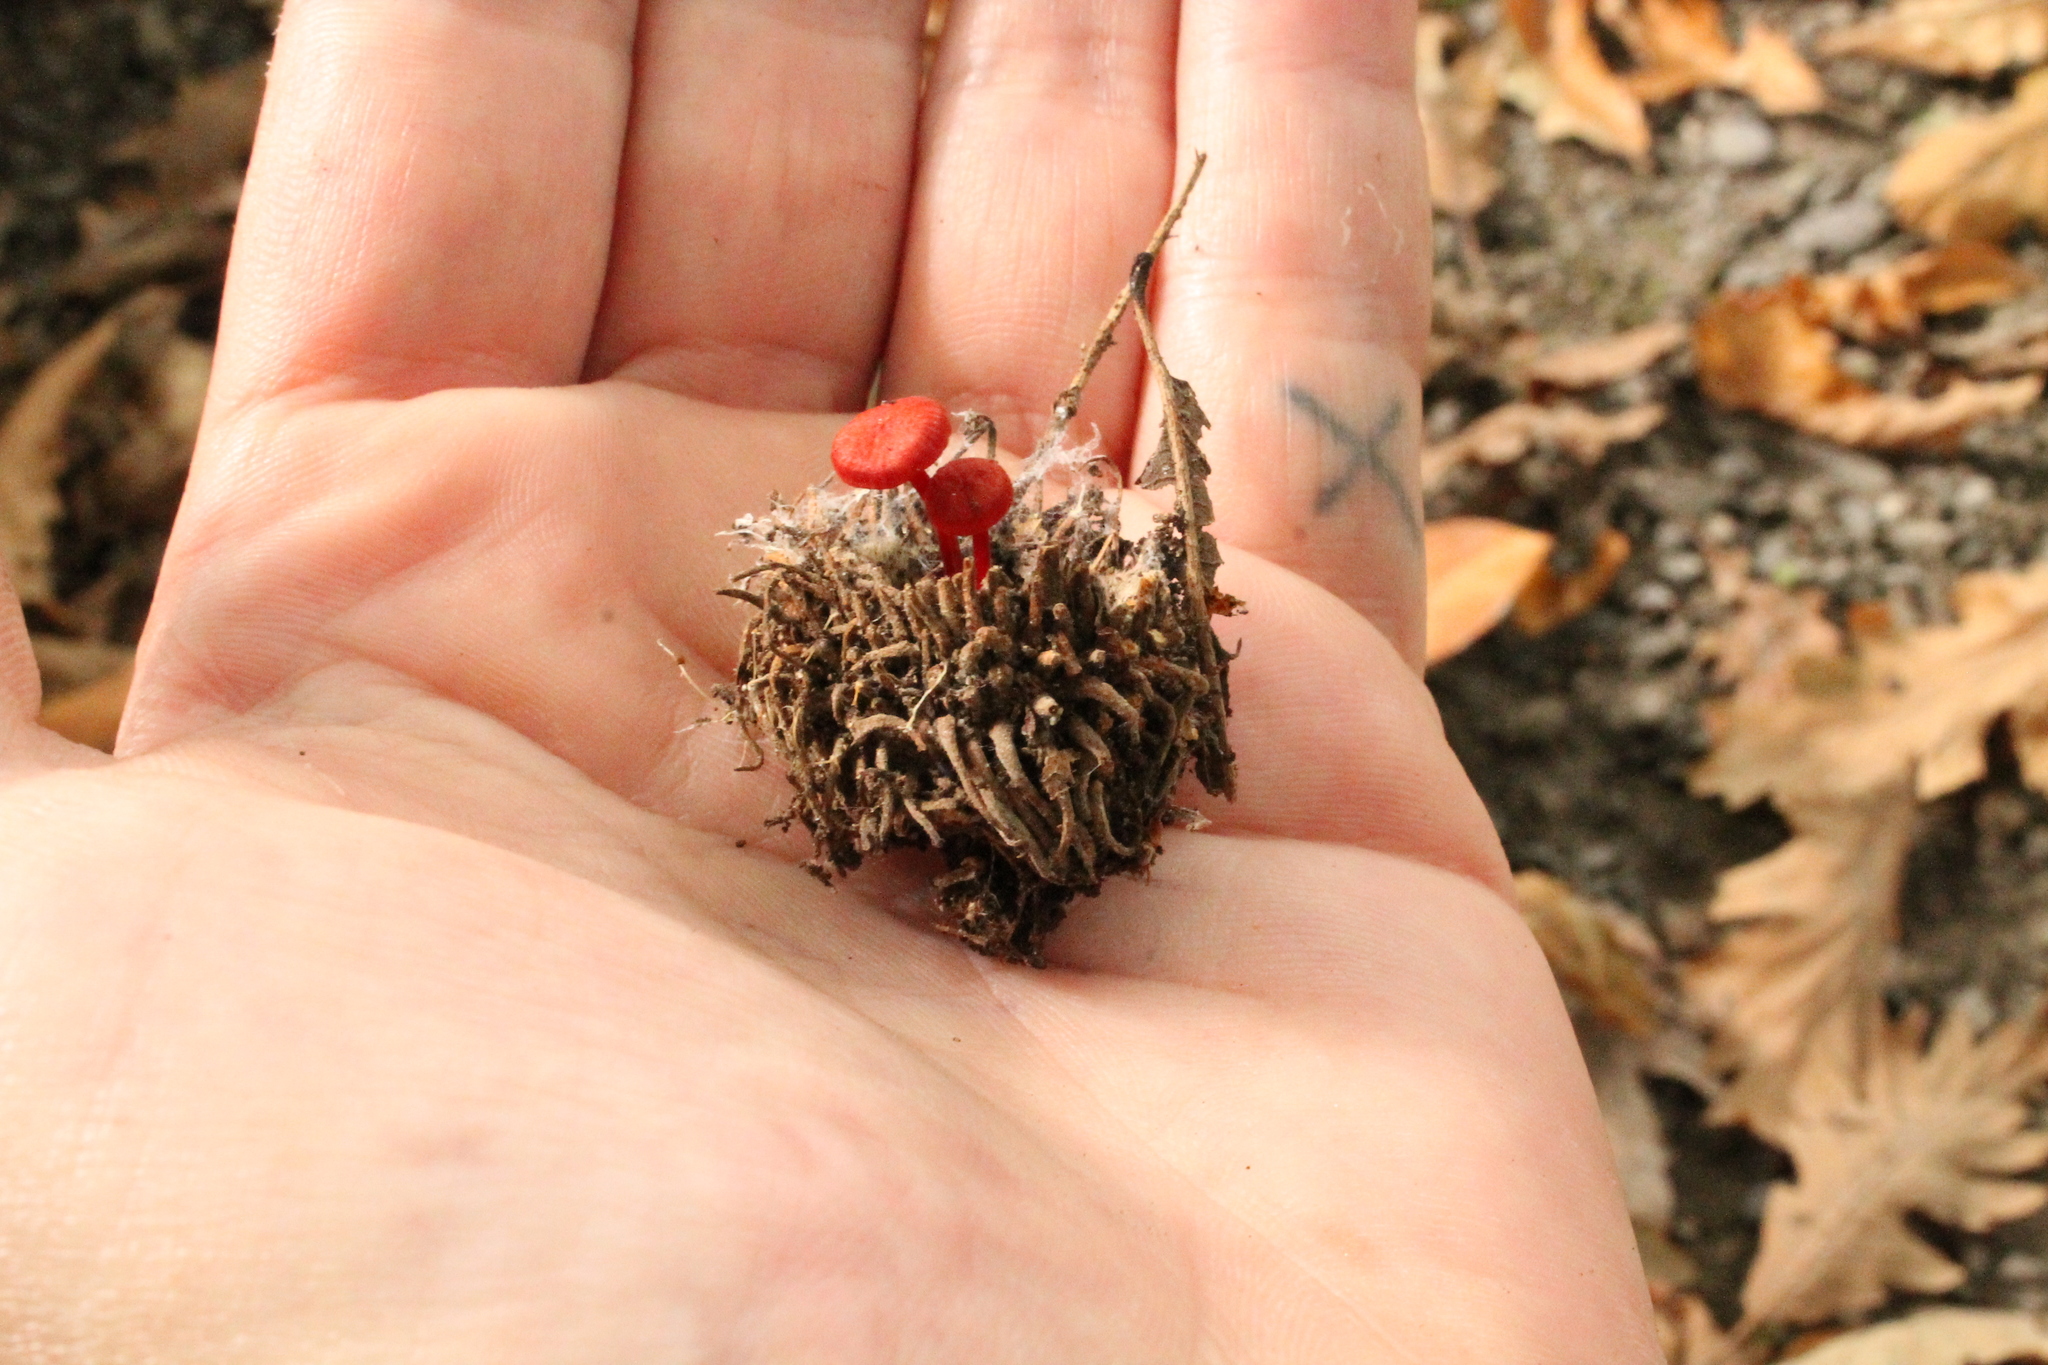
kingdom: Fungi
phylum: Basidiomycota
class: Agaricomycetes
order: Agaricales
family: Mycenaceae
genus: Cruentomycena
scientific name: Cruentomycena viscidocruenta
